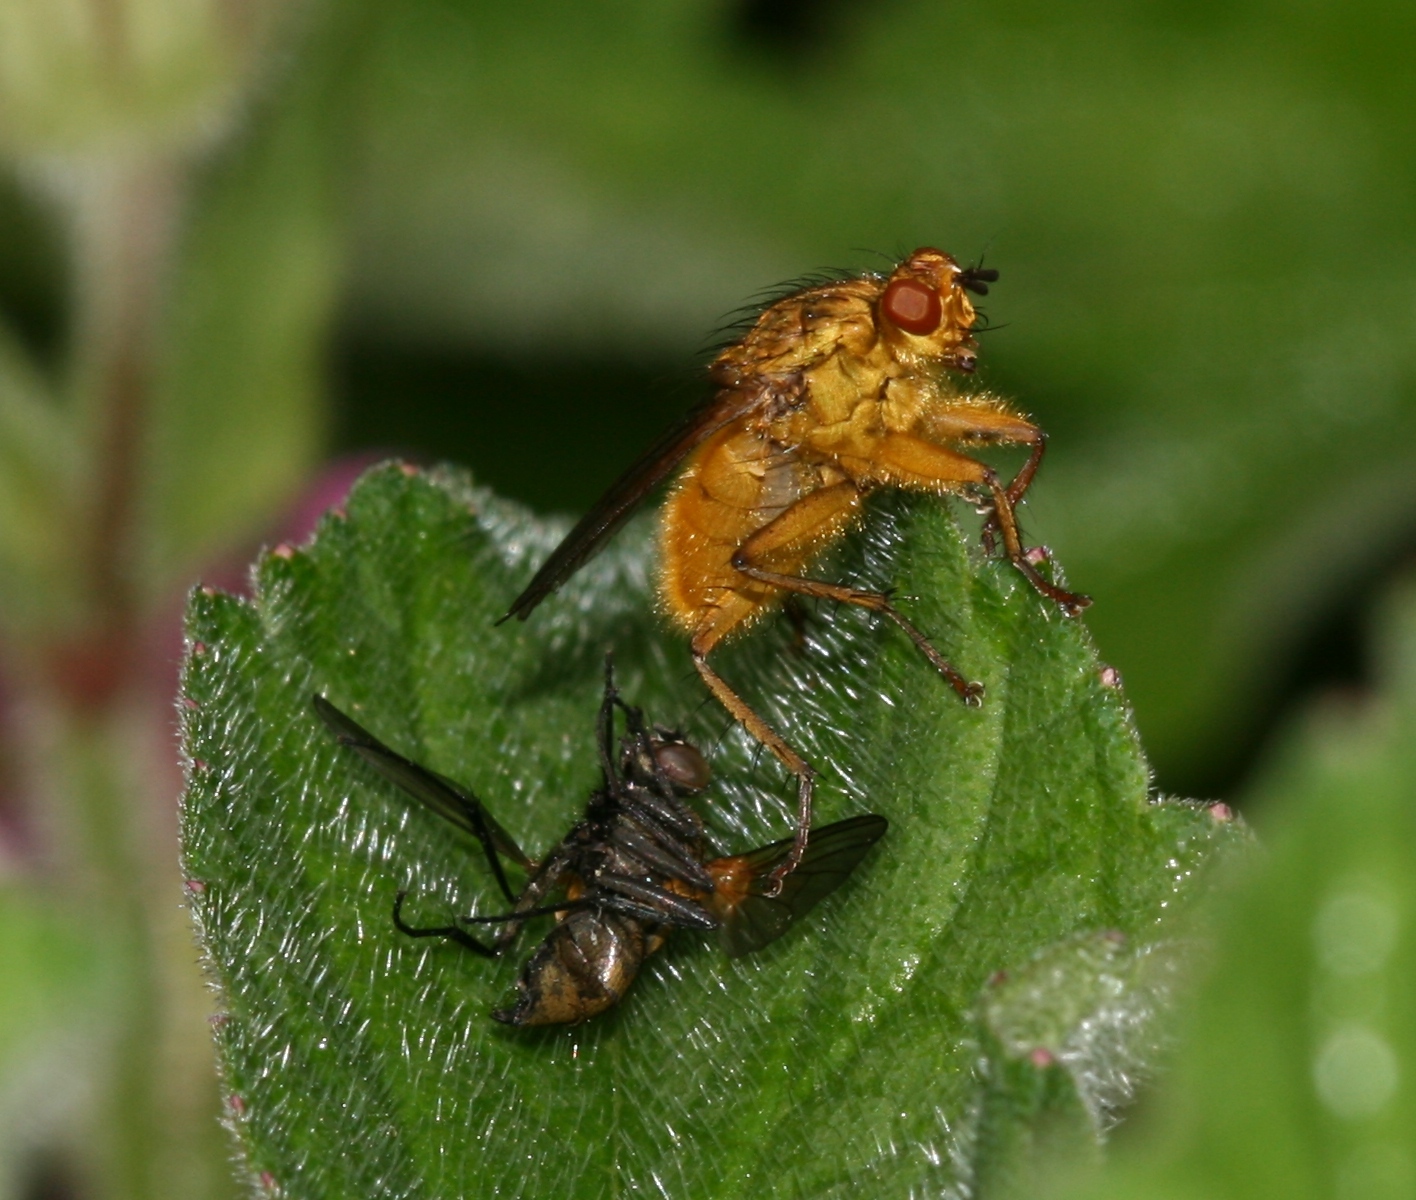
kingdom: Animalia
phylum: Arthropoda
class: Insecta
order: Diptera
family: Scathophagidae
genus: Scathophaga
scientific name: Scathophaga stercoraria
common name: Yellow dung fly
